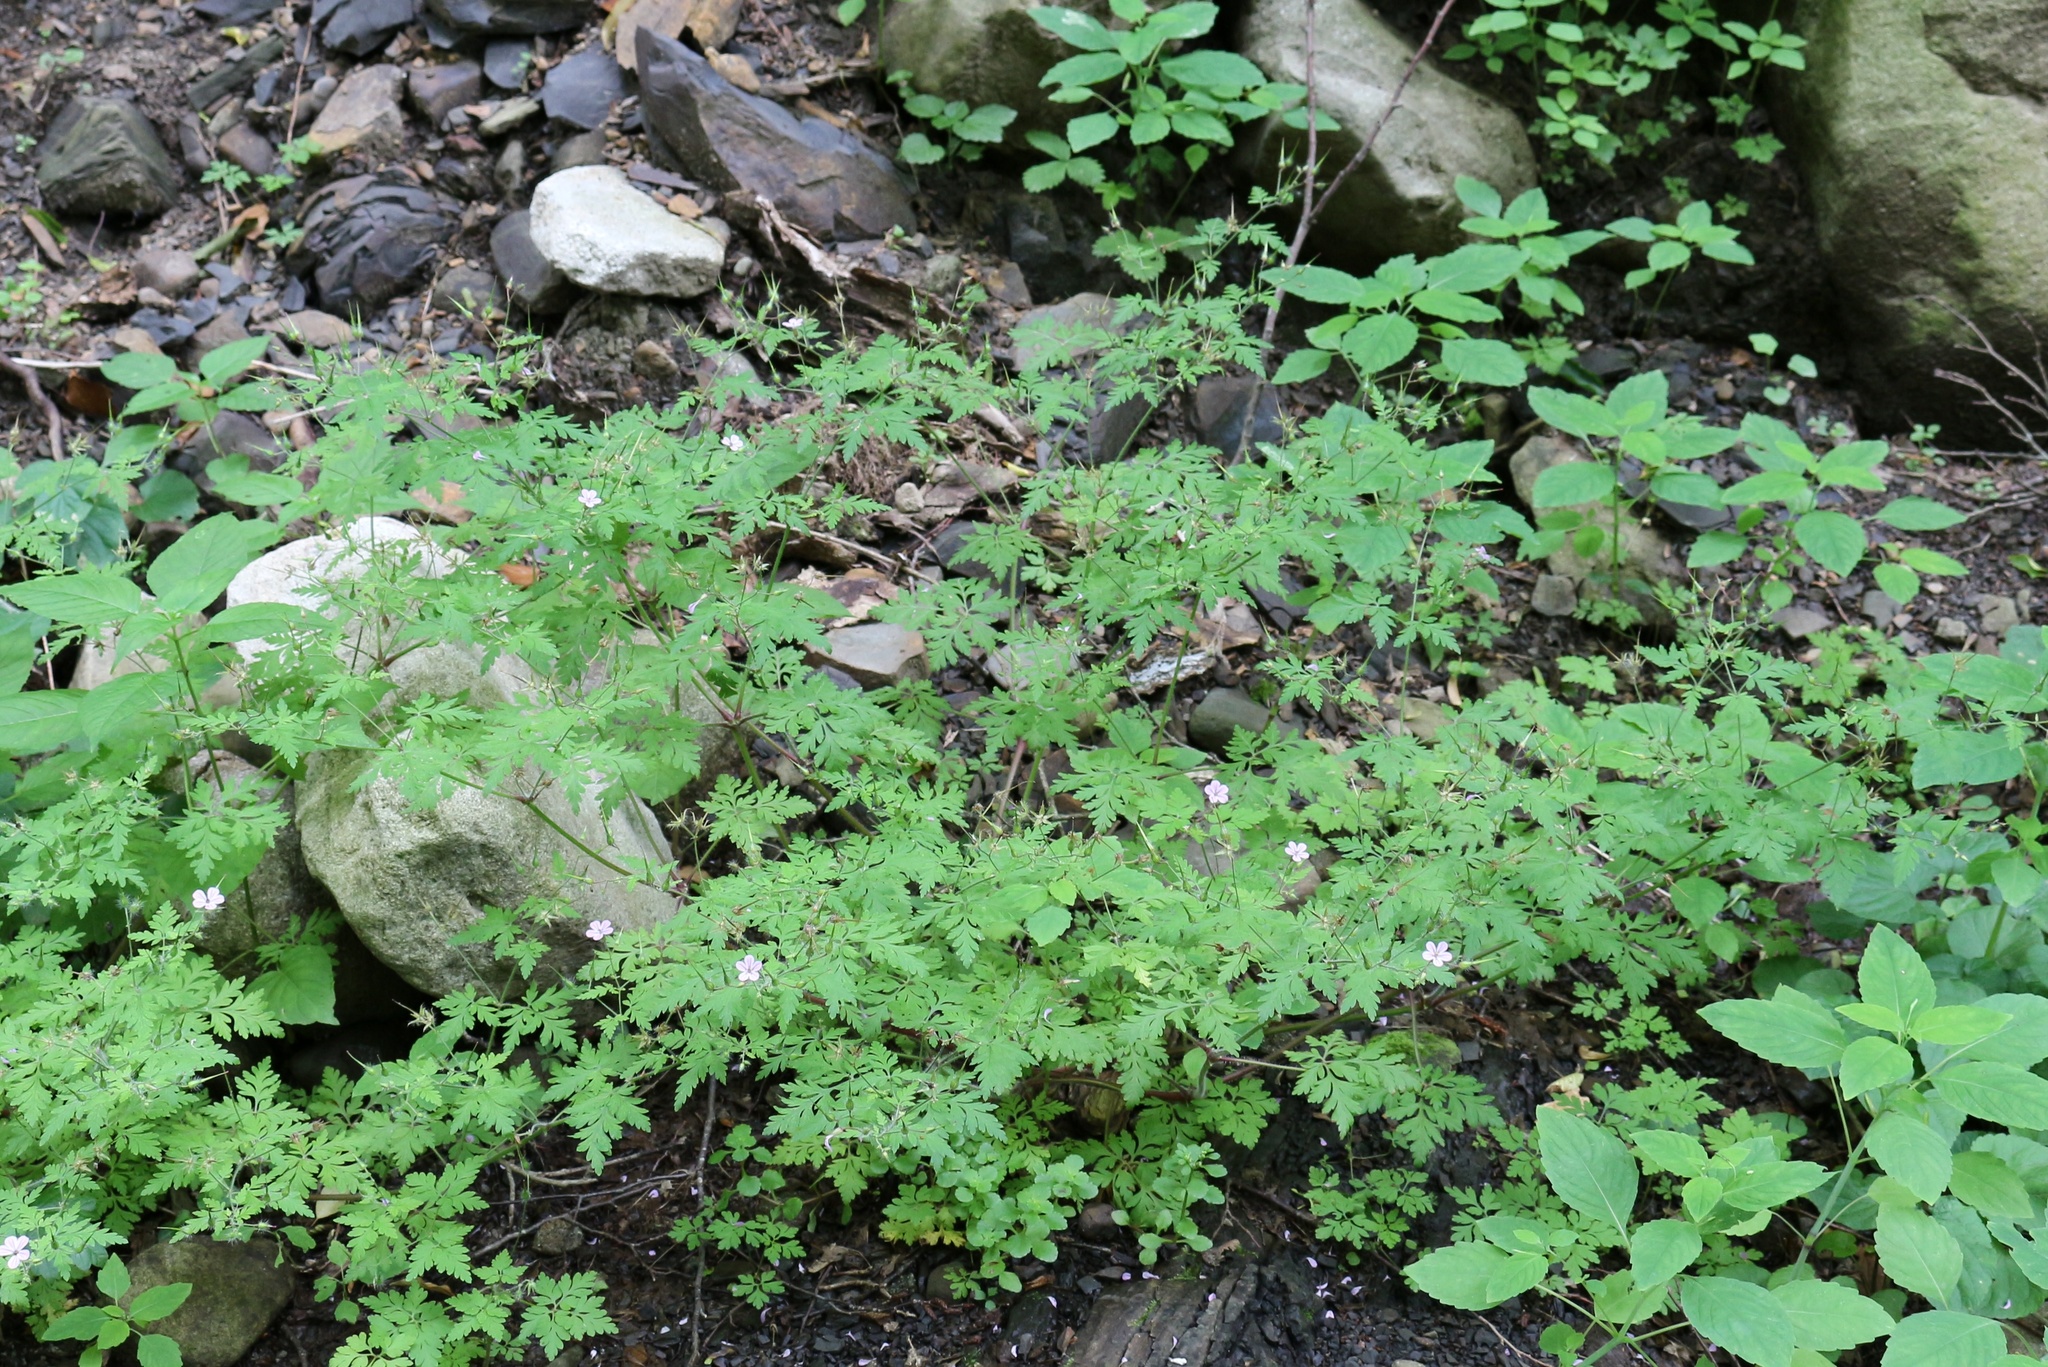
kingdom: Plantae
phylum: Tracheophyta
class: Magnoliopsida
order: Geraniales
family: Geraniaceae
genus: Geranium
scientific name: Geranium robertianum
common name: Herb-robert
